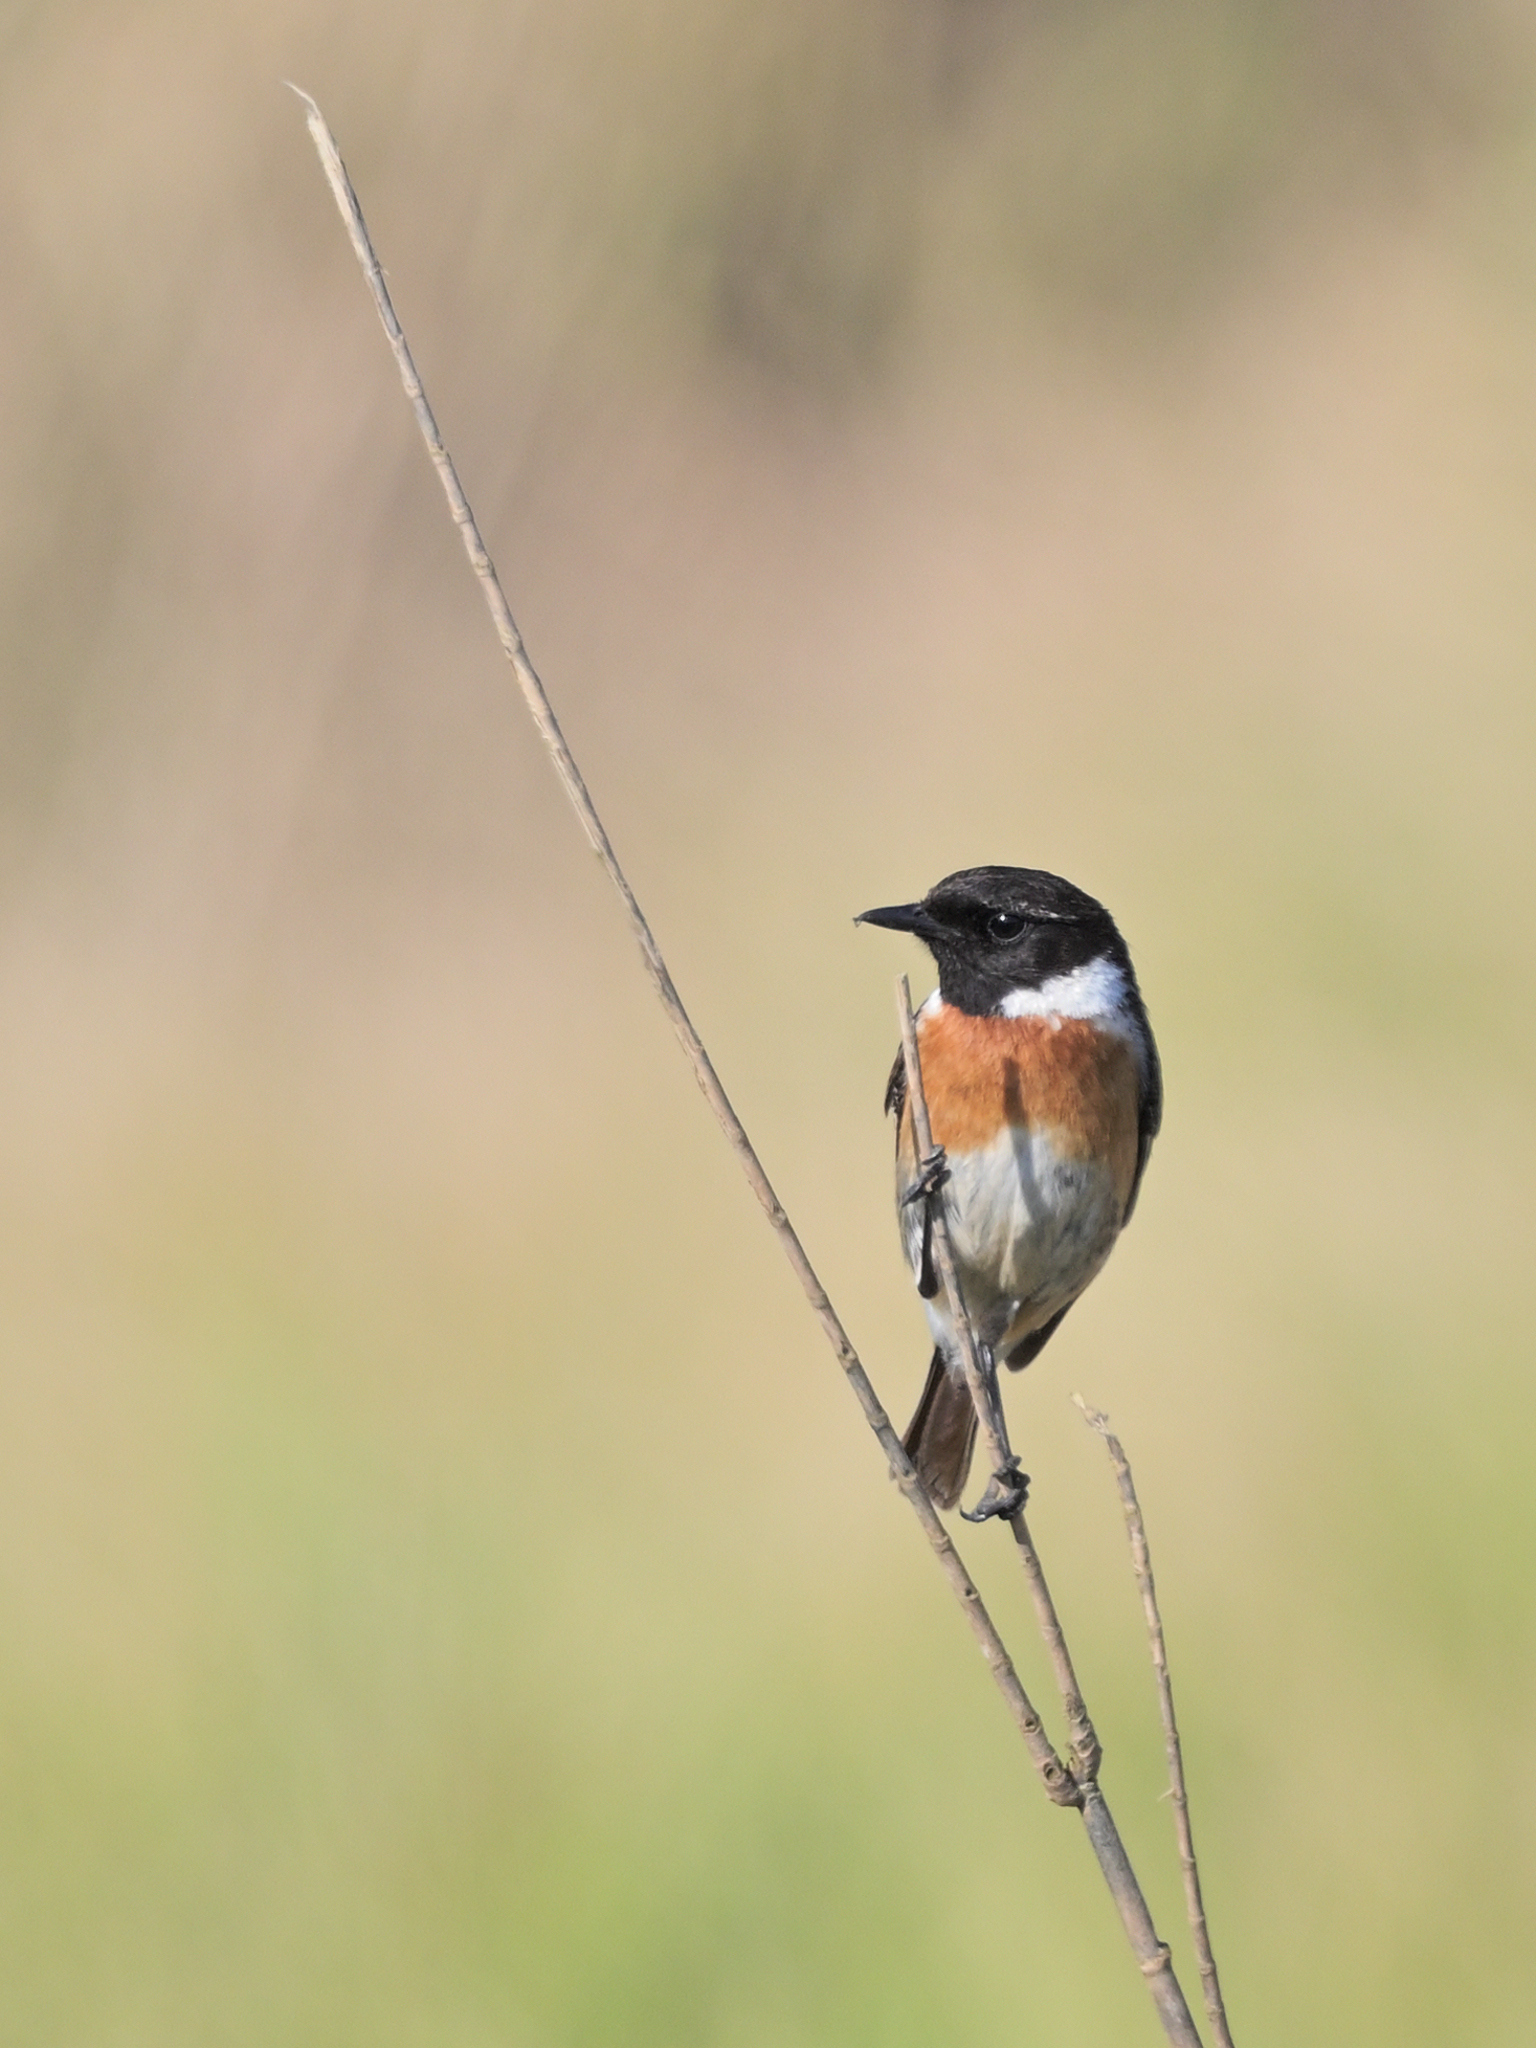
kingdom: Animalia
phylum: Chordata
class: Aves
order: Passeriformes
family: Muscicapidae
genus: Saxicola
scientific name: Saxicola rubicola
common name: European stonechat
